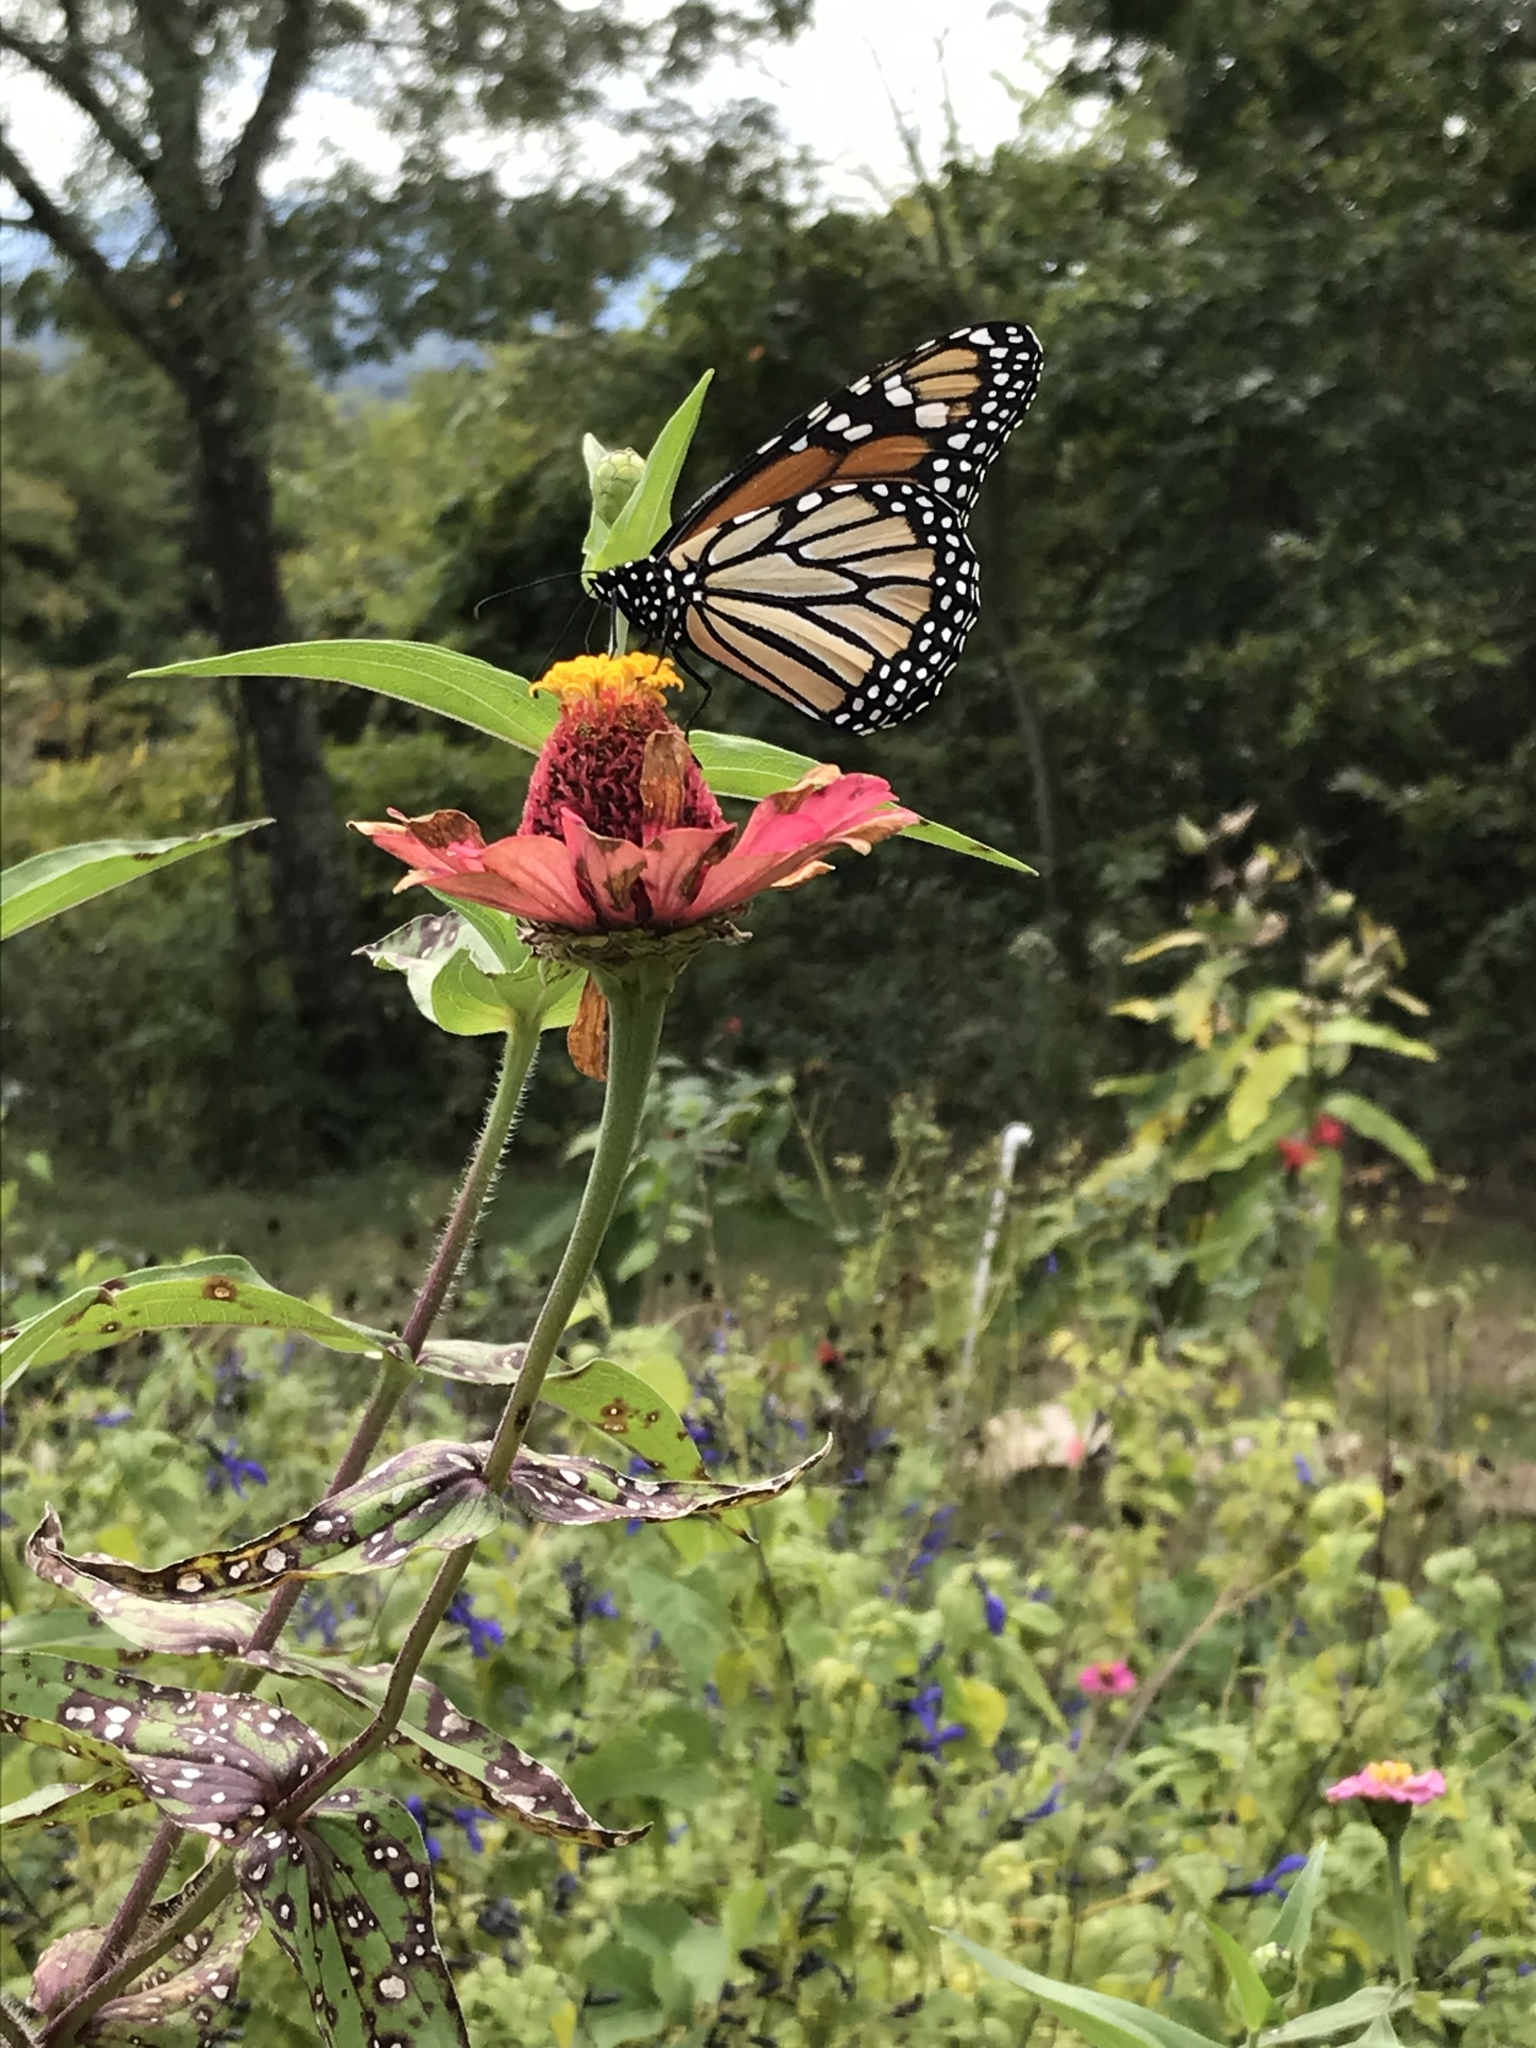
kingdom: Animalia
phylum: Arthropoda
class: Insecta
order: Lepidoptera
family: Nymphalidae
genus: Danaus
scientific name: Danaus plexippus
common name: Monarch
